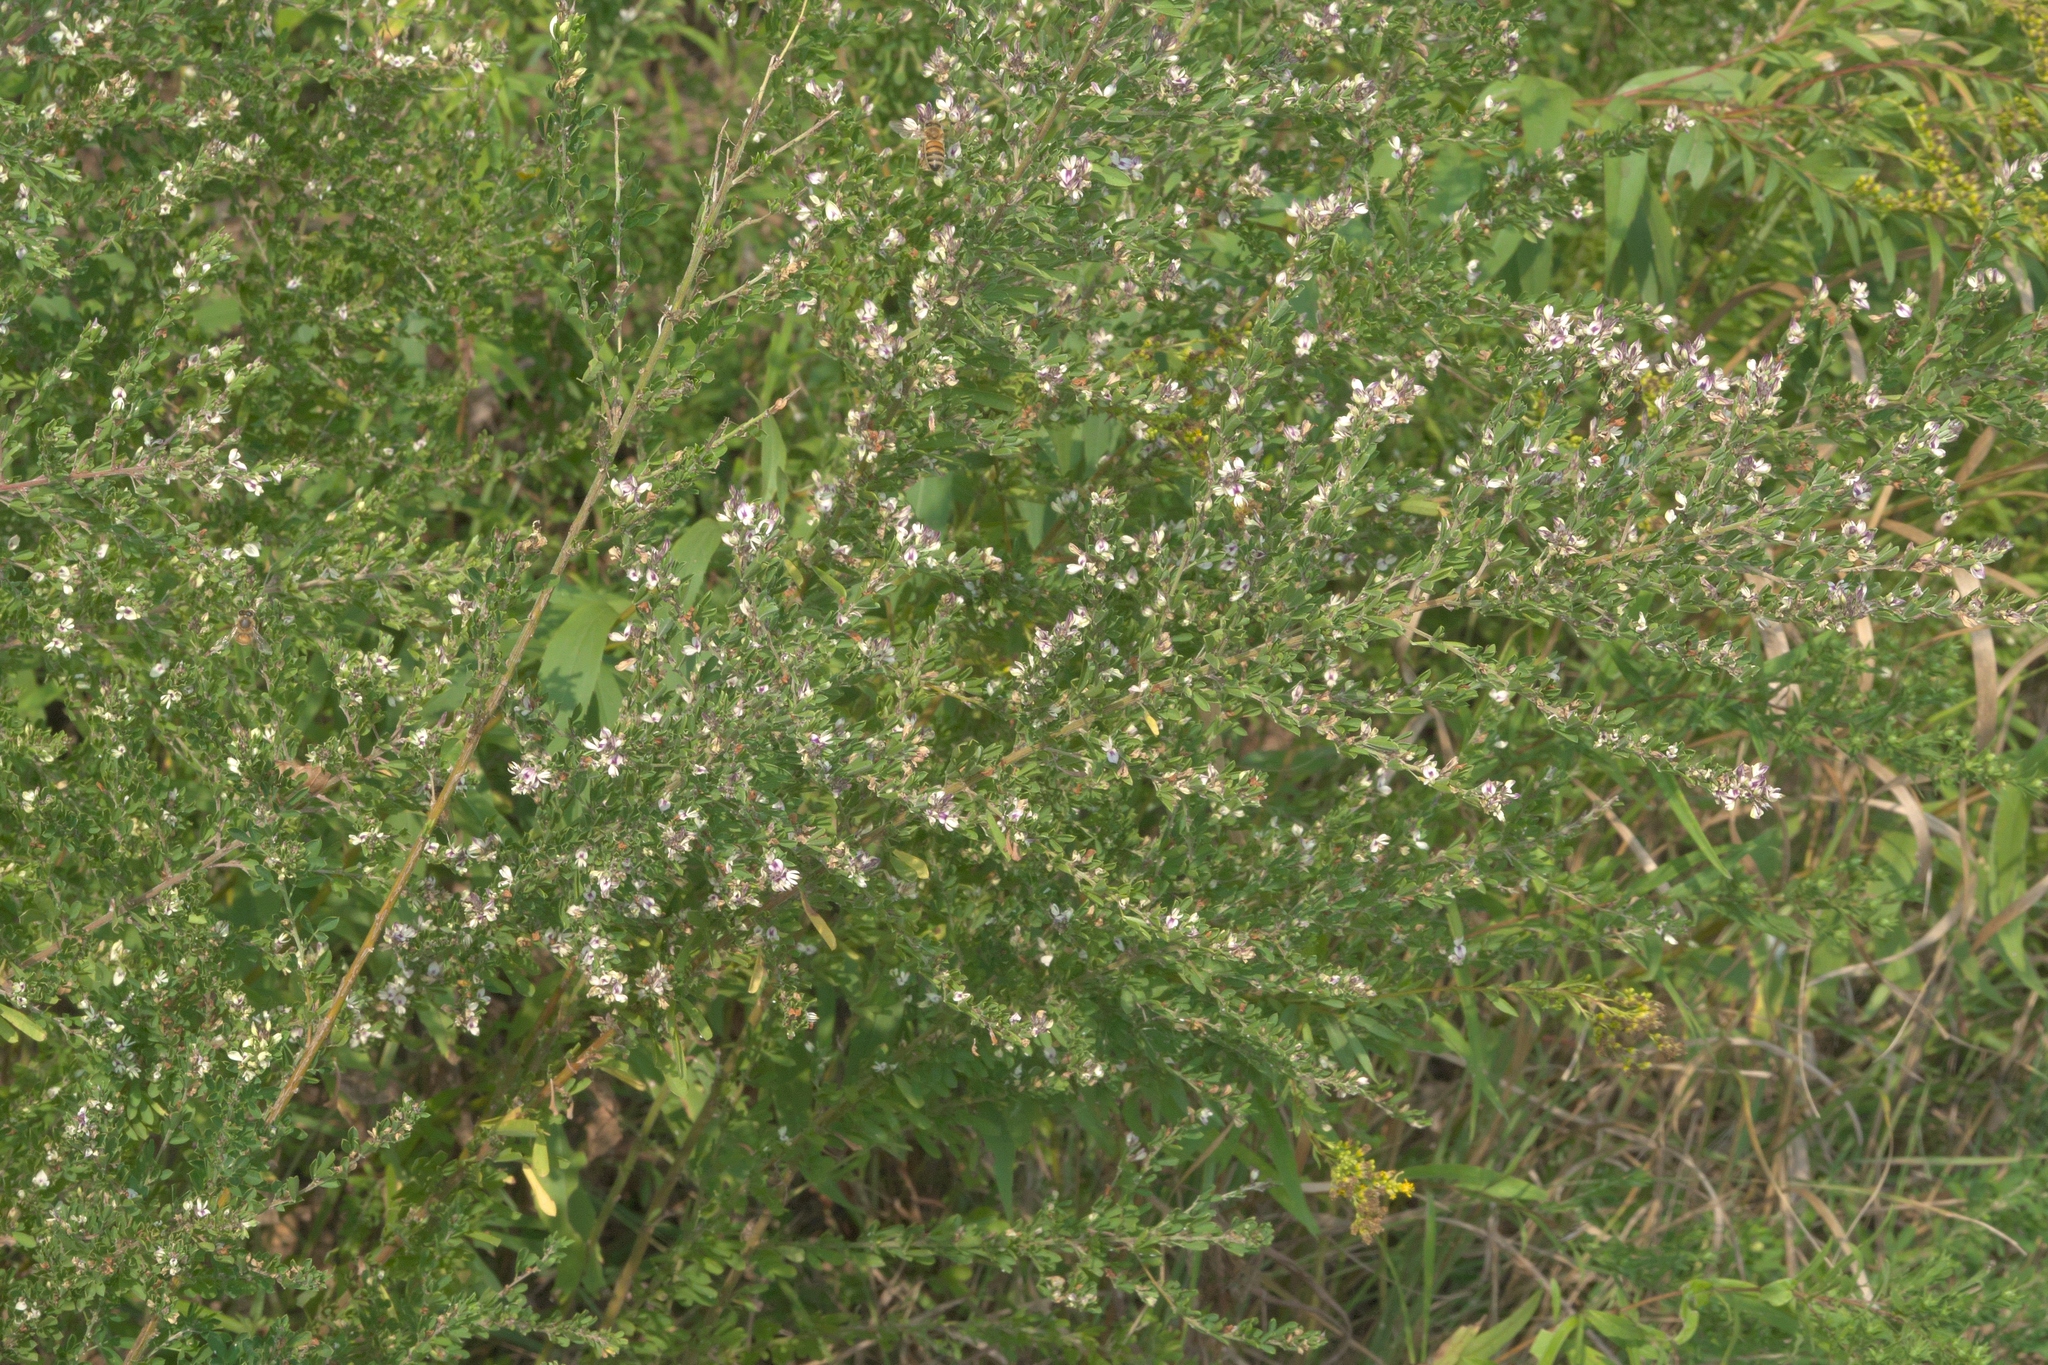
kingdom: Plantae
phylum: Tracheophyta
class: Magnoliopsida
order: Fabales
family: Fabaceae
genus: Lespedeza
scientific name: Lespedeza cuneata
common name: Chinese bush-clover
